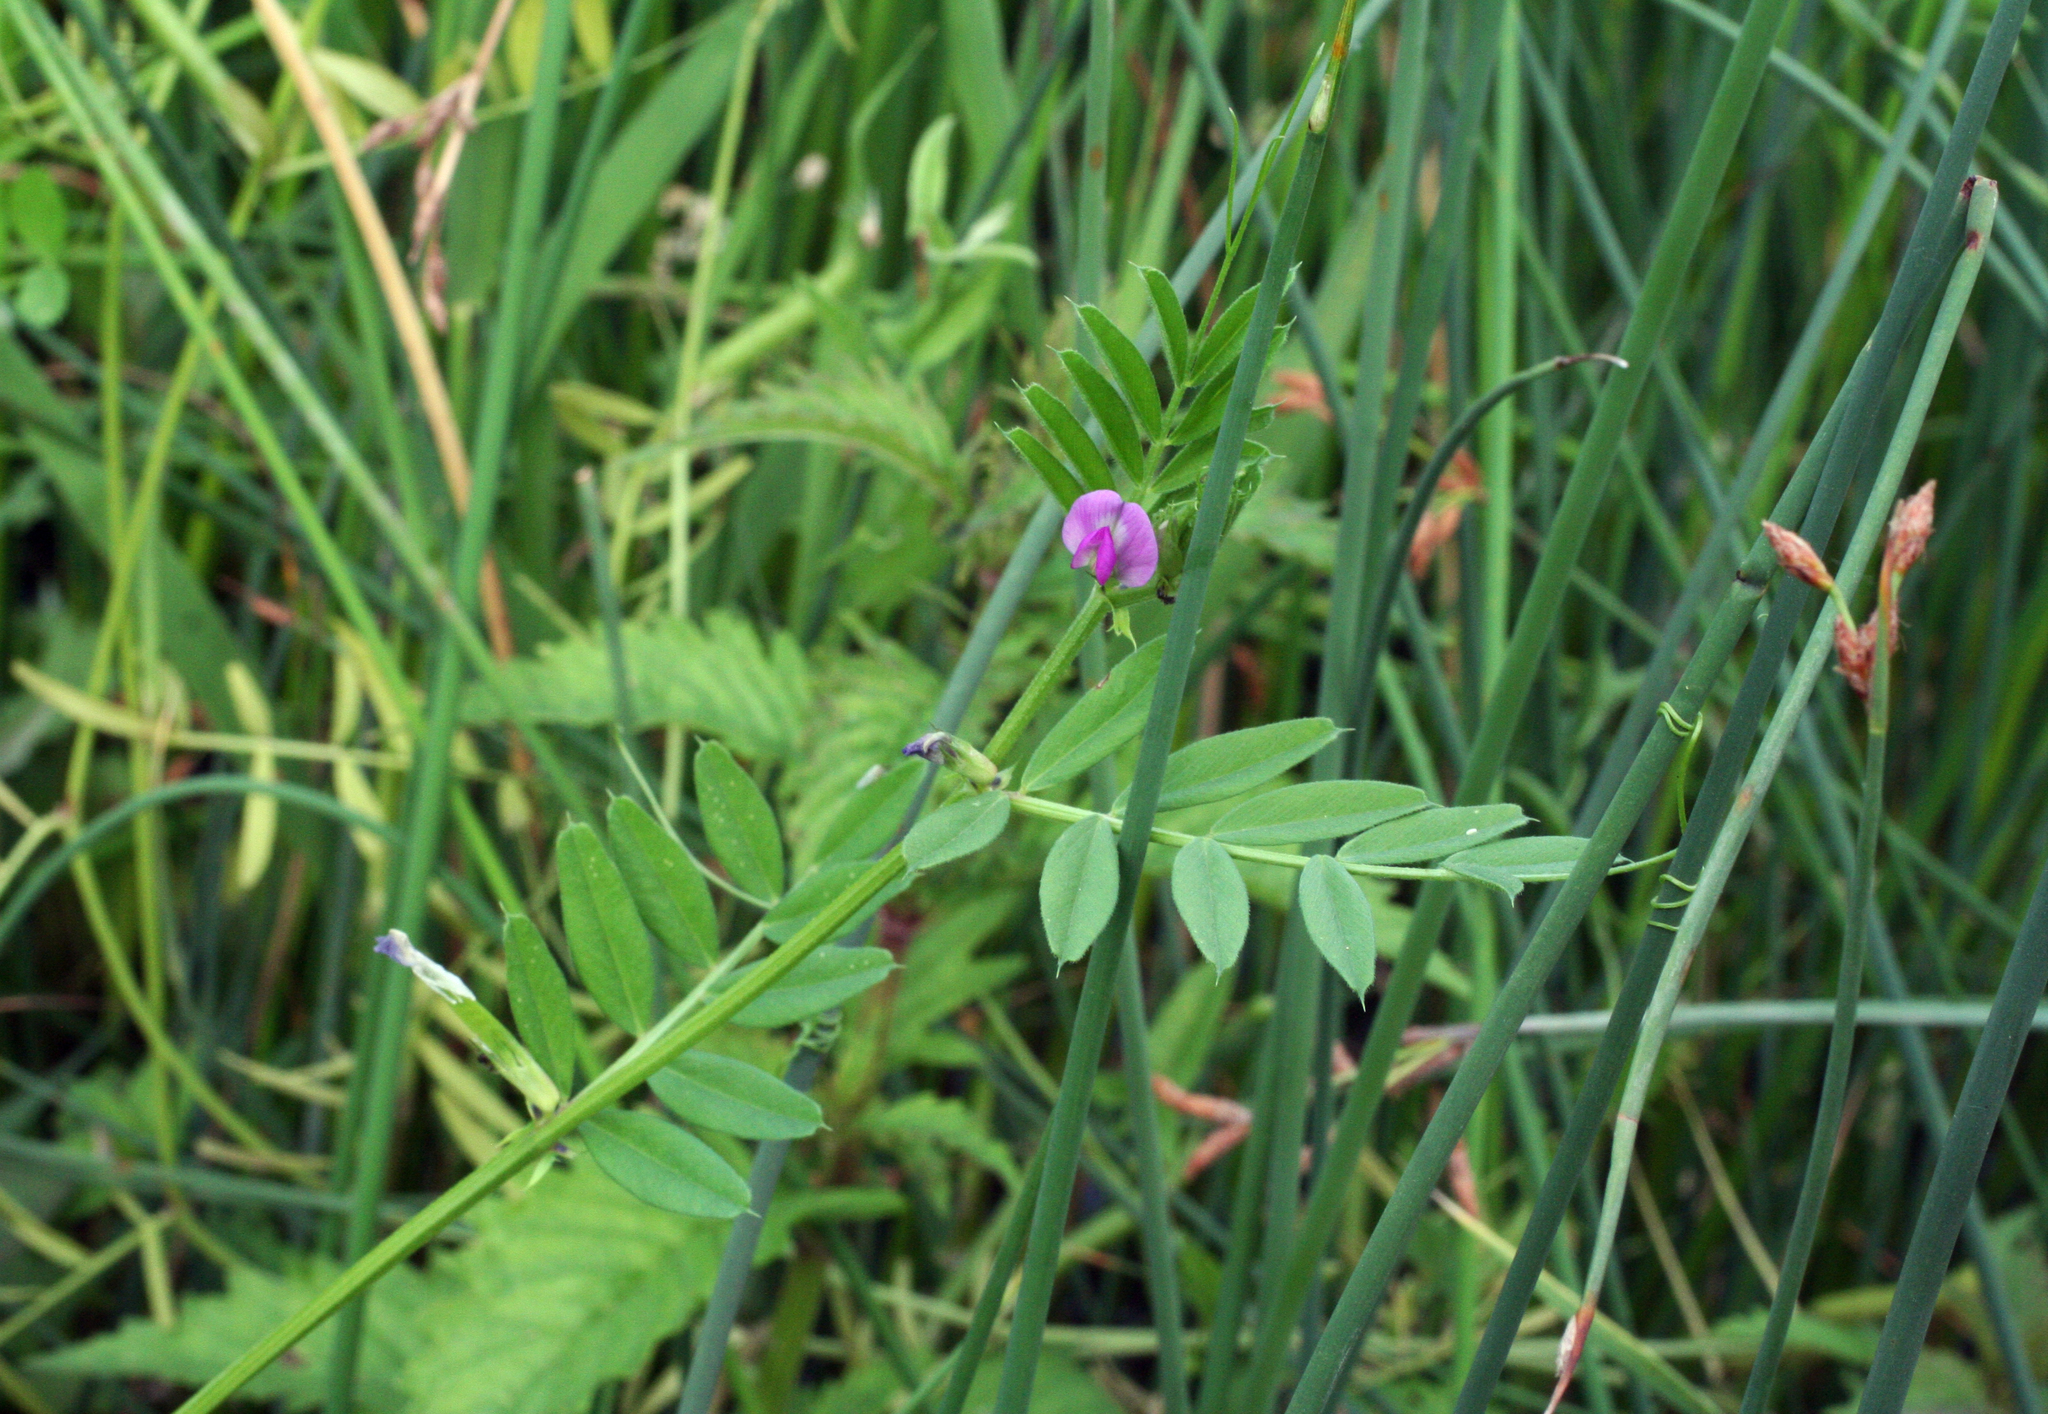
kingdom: Plantae
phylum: Tracheophyta
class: Magnoliopsida
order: Fabales
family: Fabaceae
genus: Vicia
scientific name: Vicia sativa
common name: Garden vetch
